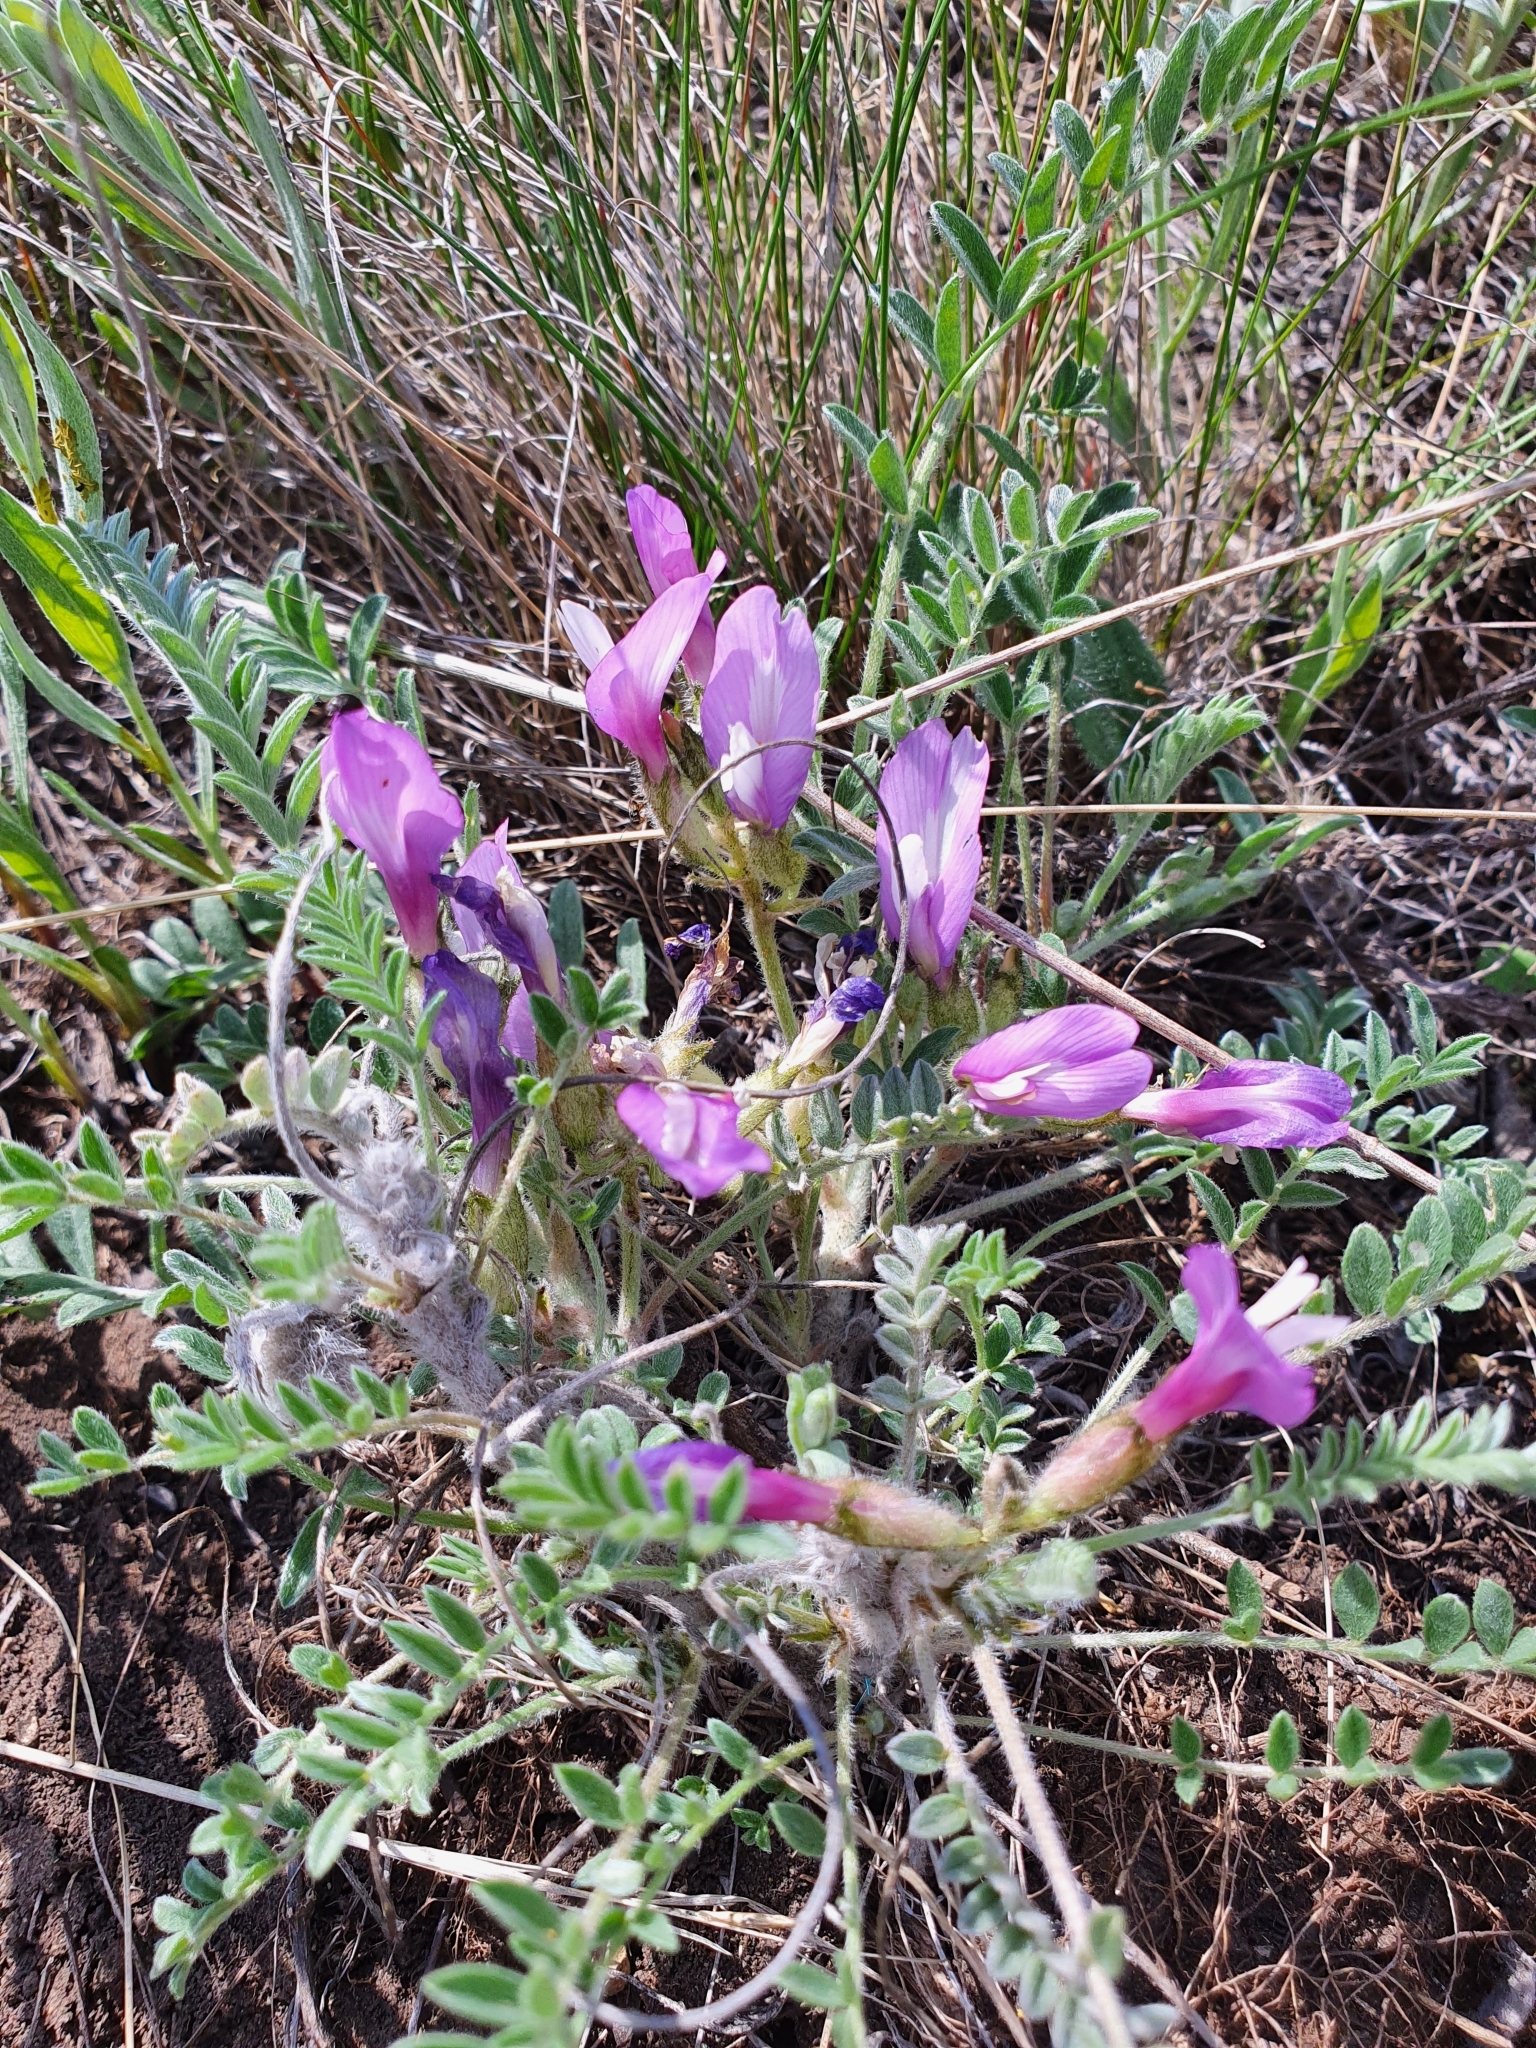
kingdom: Plantae
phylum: Tracheophyta
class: Magnoliopsida
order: Fabales
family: Fabaceae
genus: Astragalus
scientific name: Astragalus testiculatus
